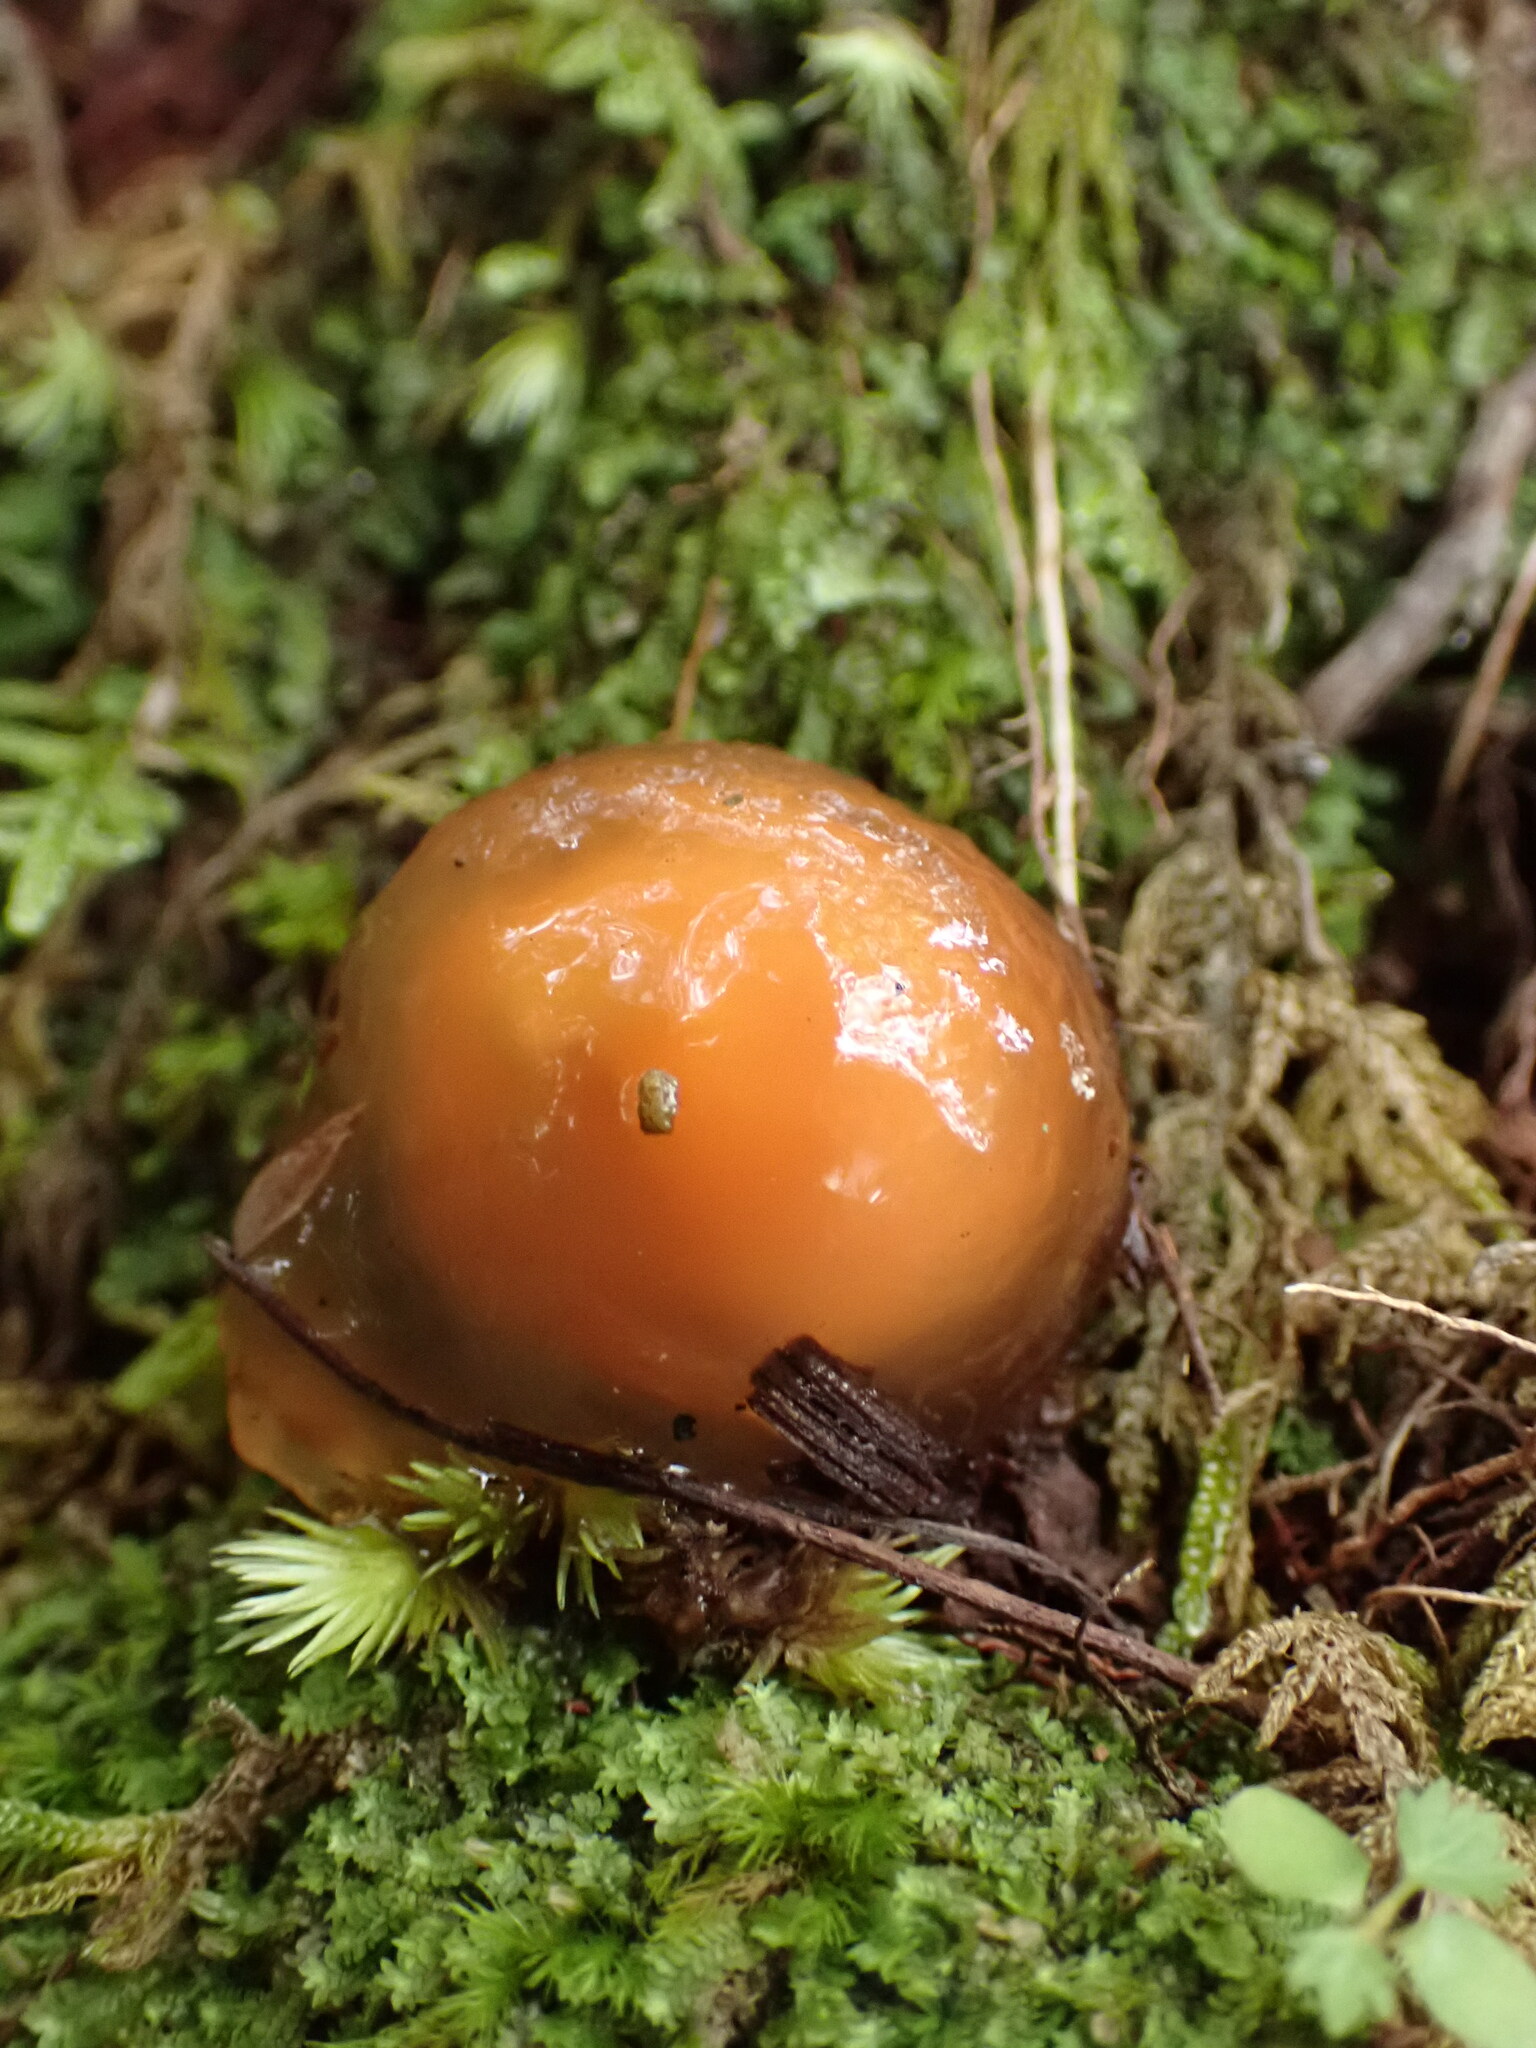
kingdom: Fungi
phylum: Basidiomycota
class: Agaricomycetes
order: Boletales
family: Calostomataceae
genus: Calostoma
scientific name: Calostoma cinnabarinum
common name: Stalked puffball-in-aspic
